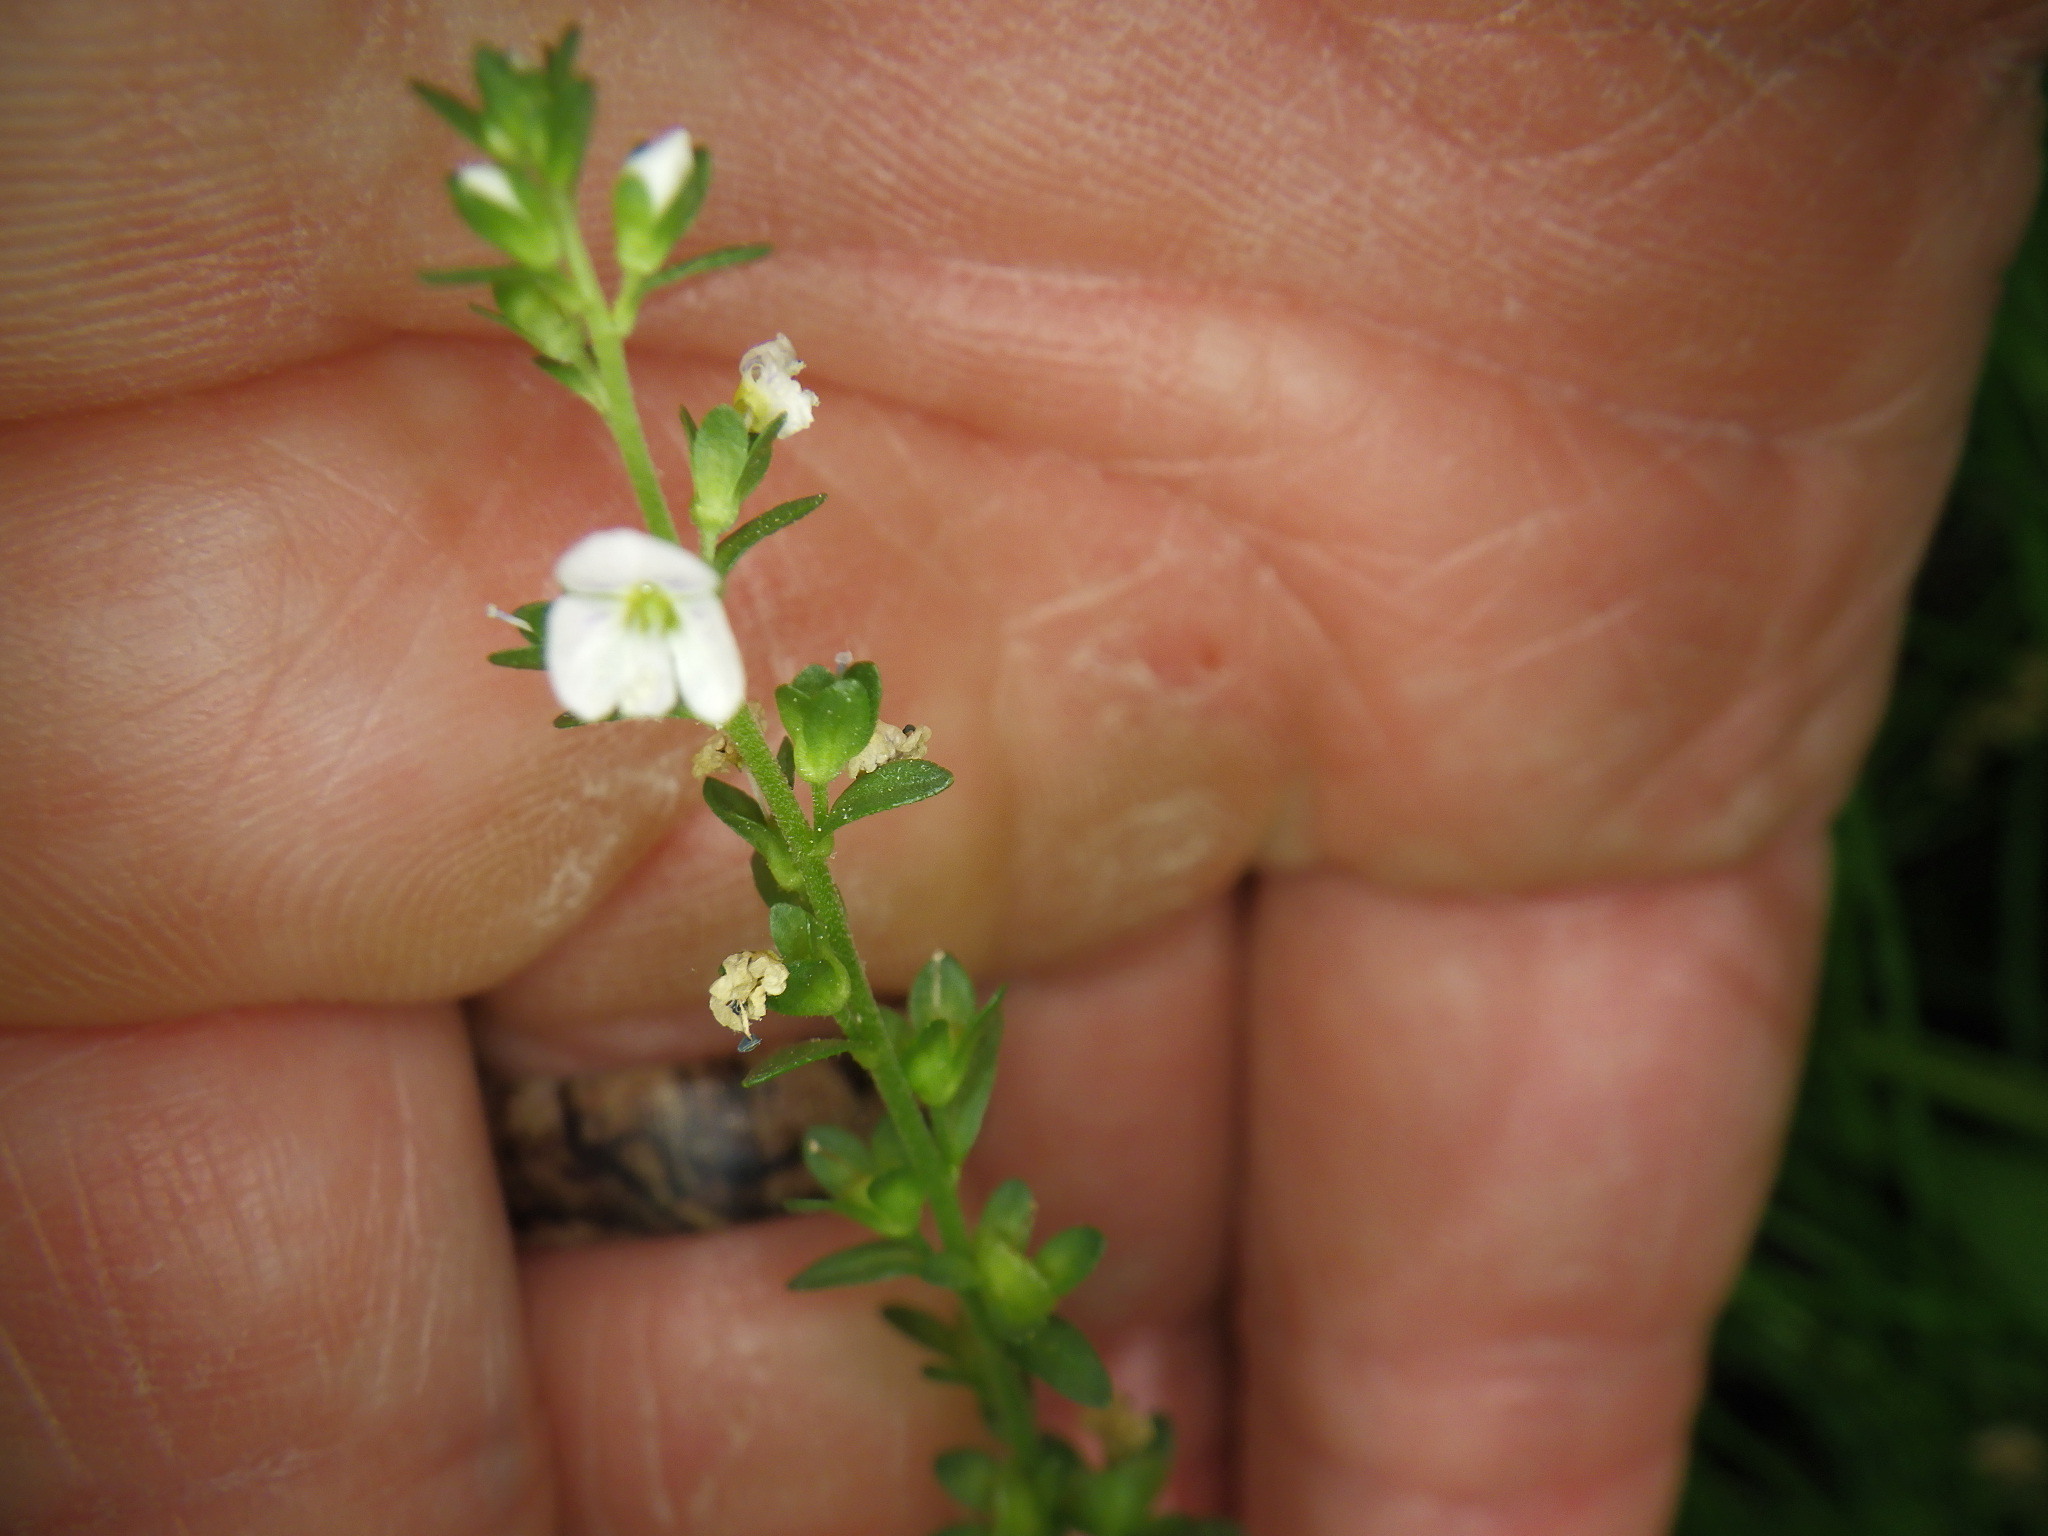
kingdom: Plantae
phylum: Tracheophyta
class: Magnoliopsida
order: Lamiales
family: Plantaginaceae
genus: Veronica
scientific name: Veronica serpyllifolia
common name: Thyme-leaved speedwell
